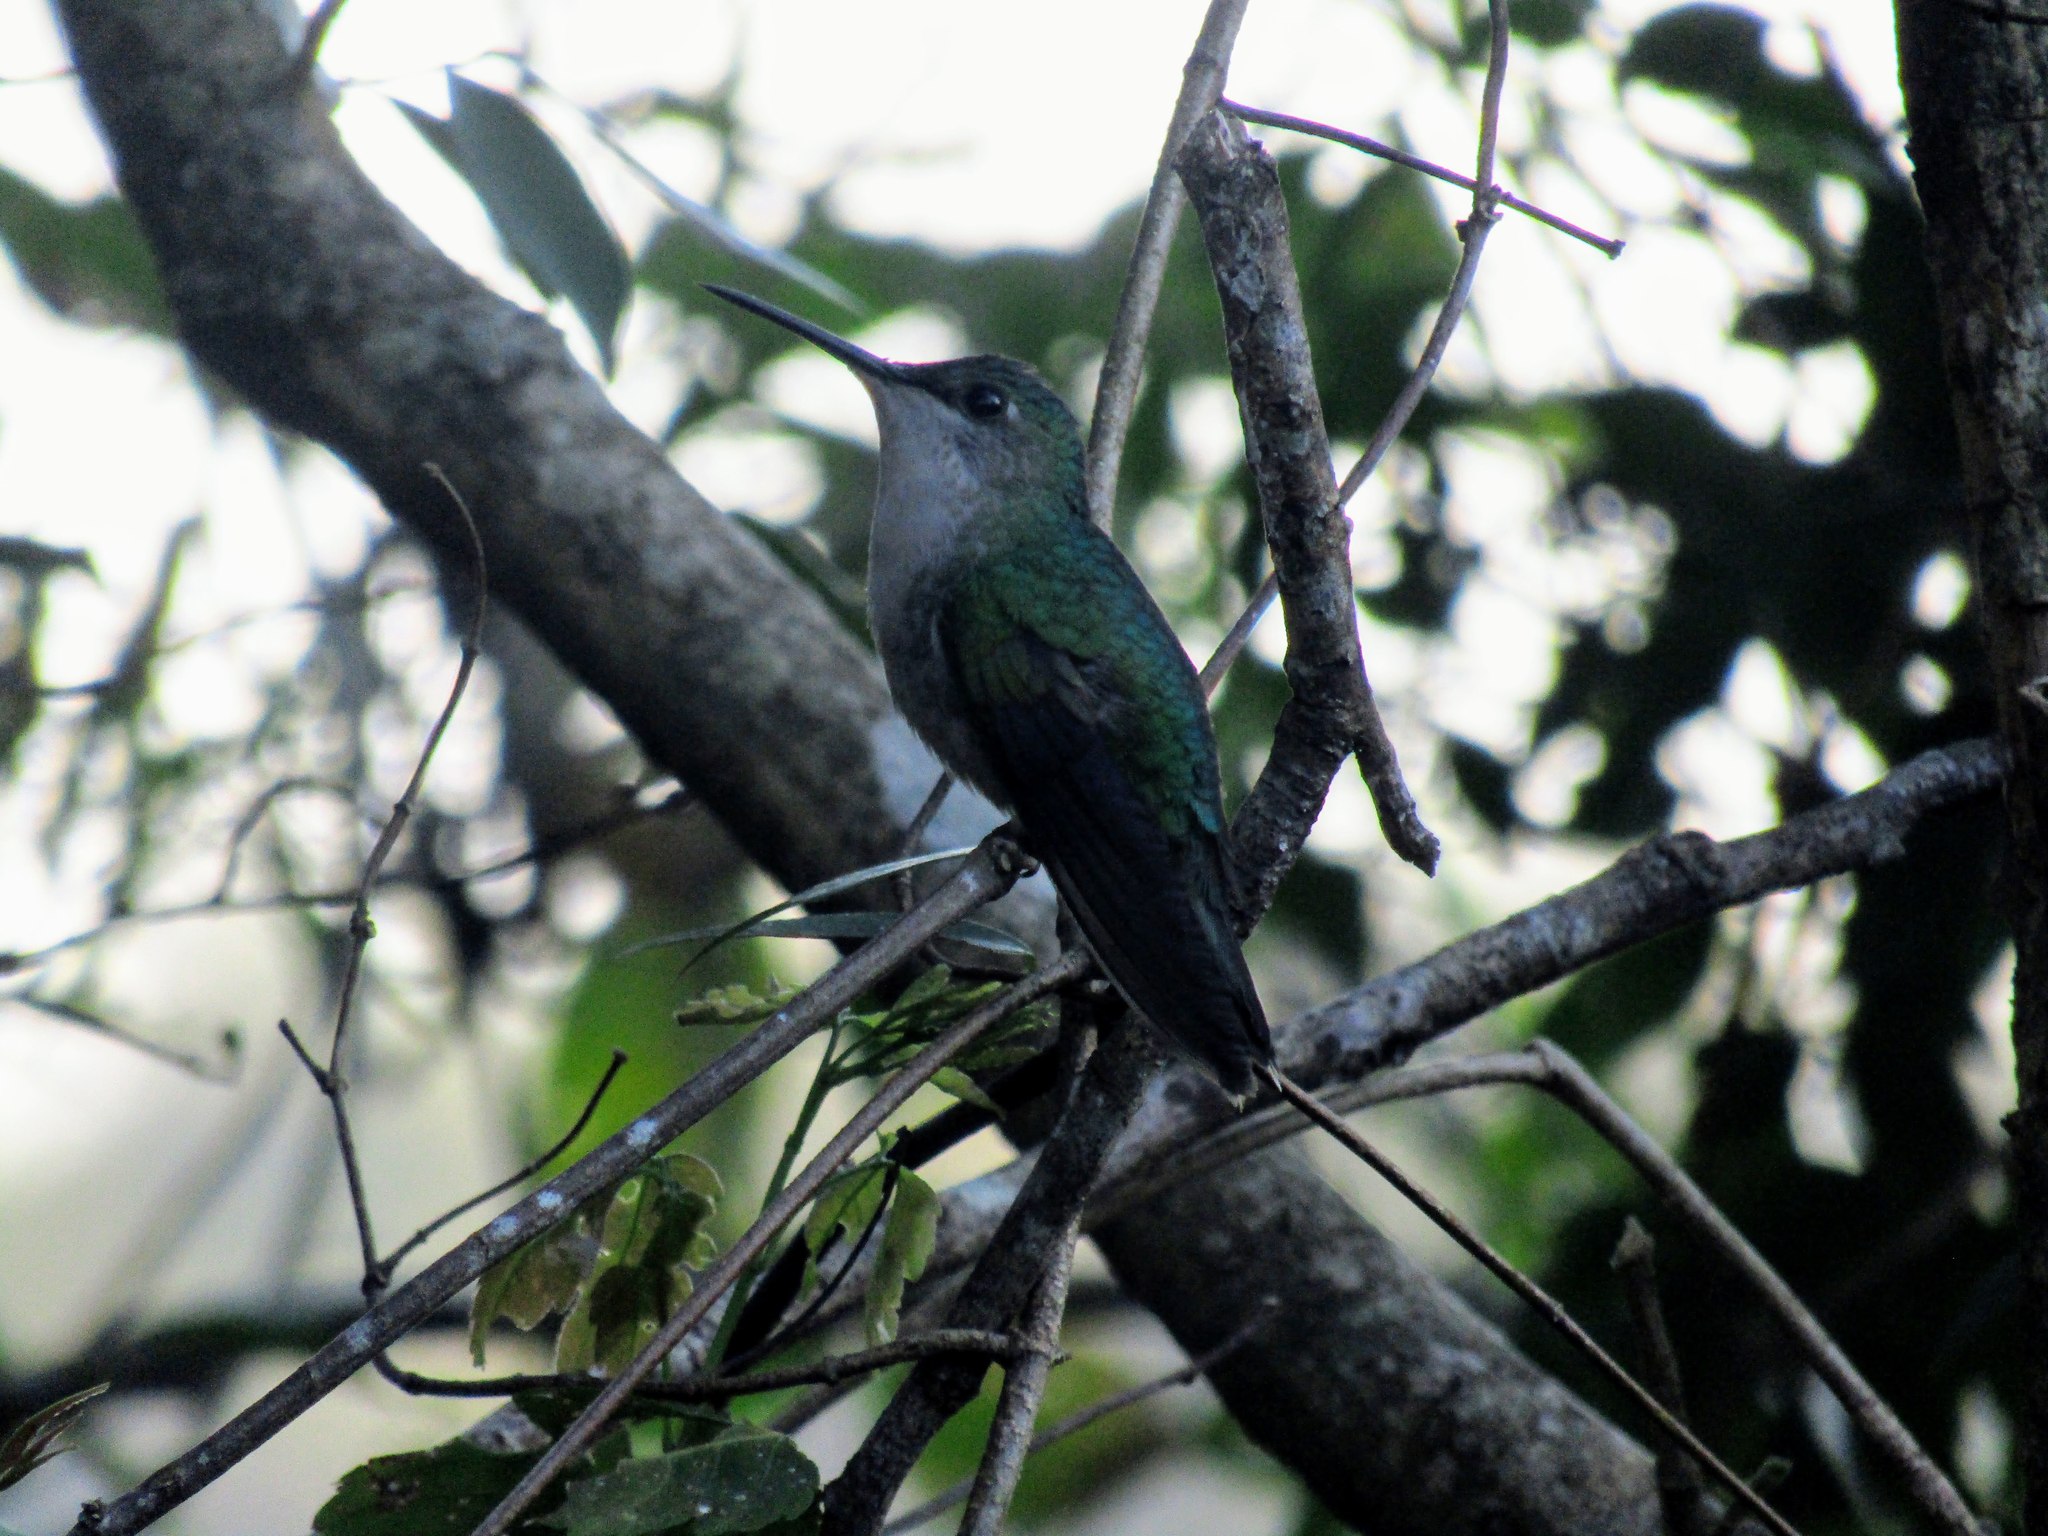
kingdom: Animalia
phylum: Chordata
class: Aves
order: Apodiformes
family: Trochilidae
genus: Stephanoxis
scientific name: Stephanoxis loddigesii
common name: Purple-crowned plovercrest
